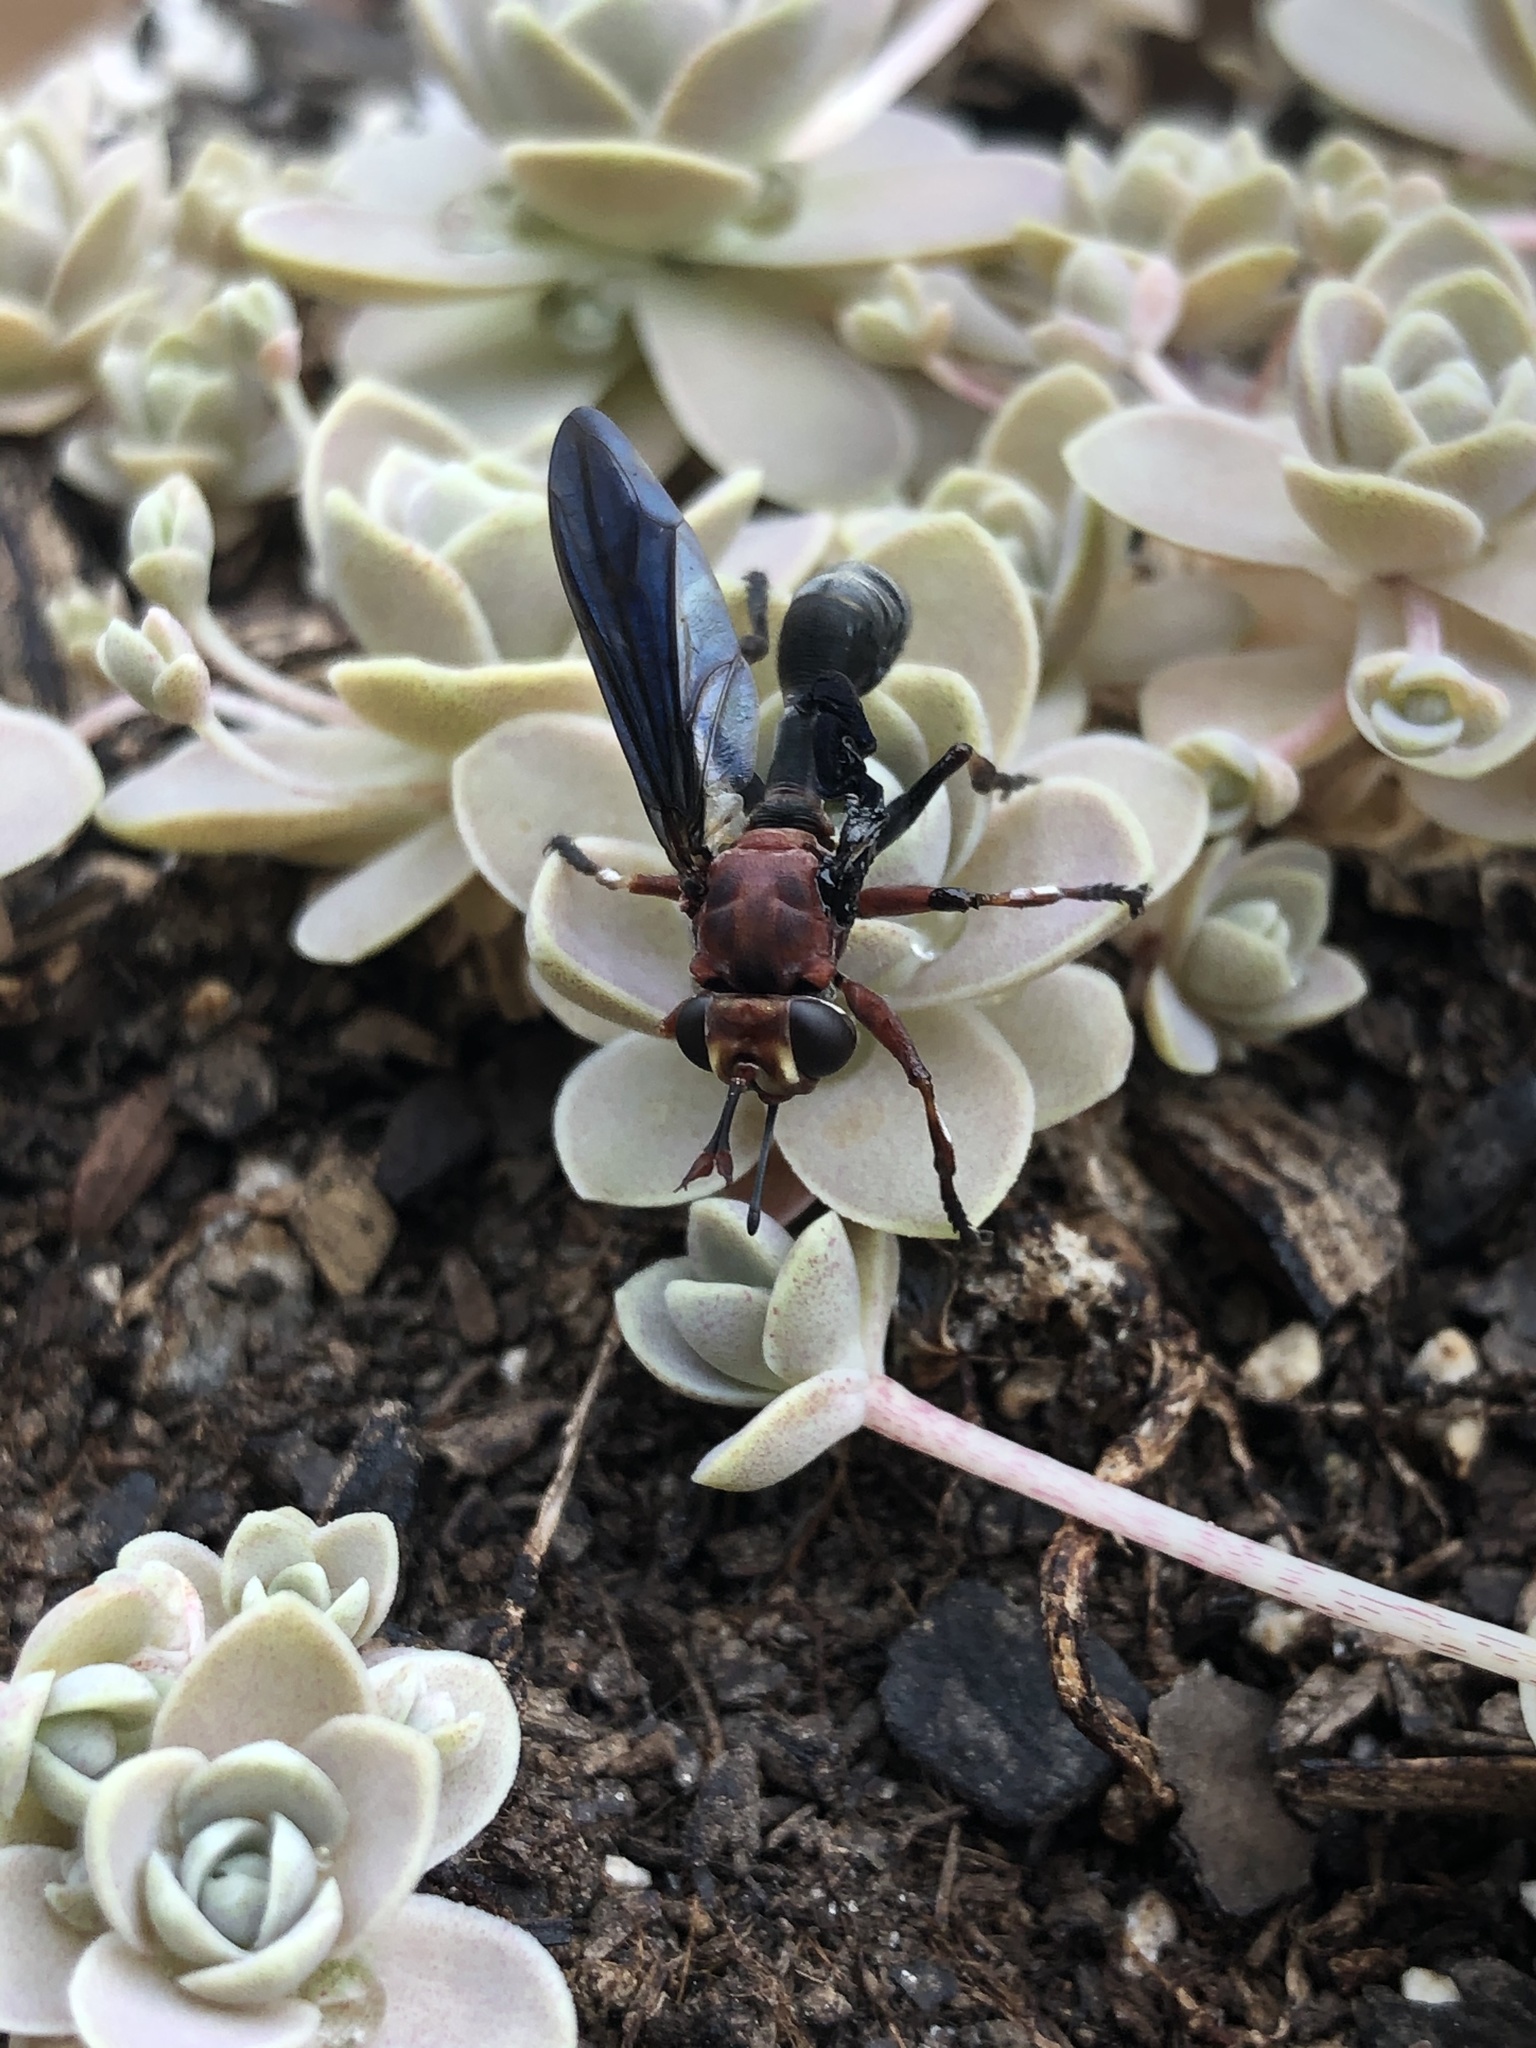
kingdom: Animalia
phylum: Arthropoda
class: Insecta
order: Diptera
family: Conopidae
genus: Physocephala
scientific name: Physocephala floridana
